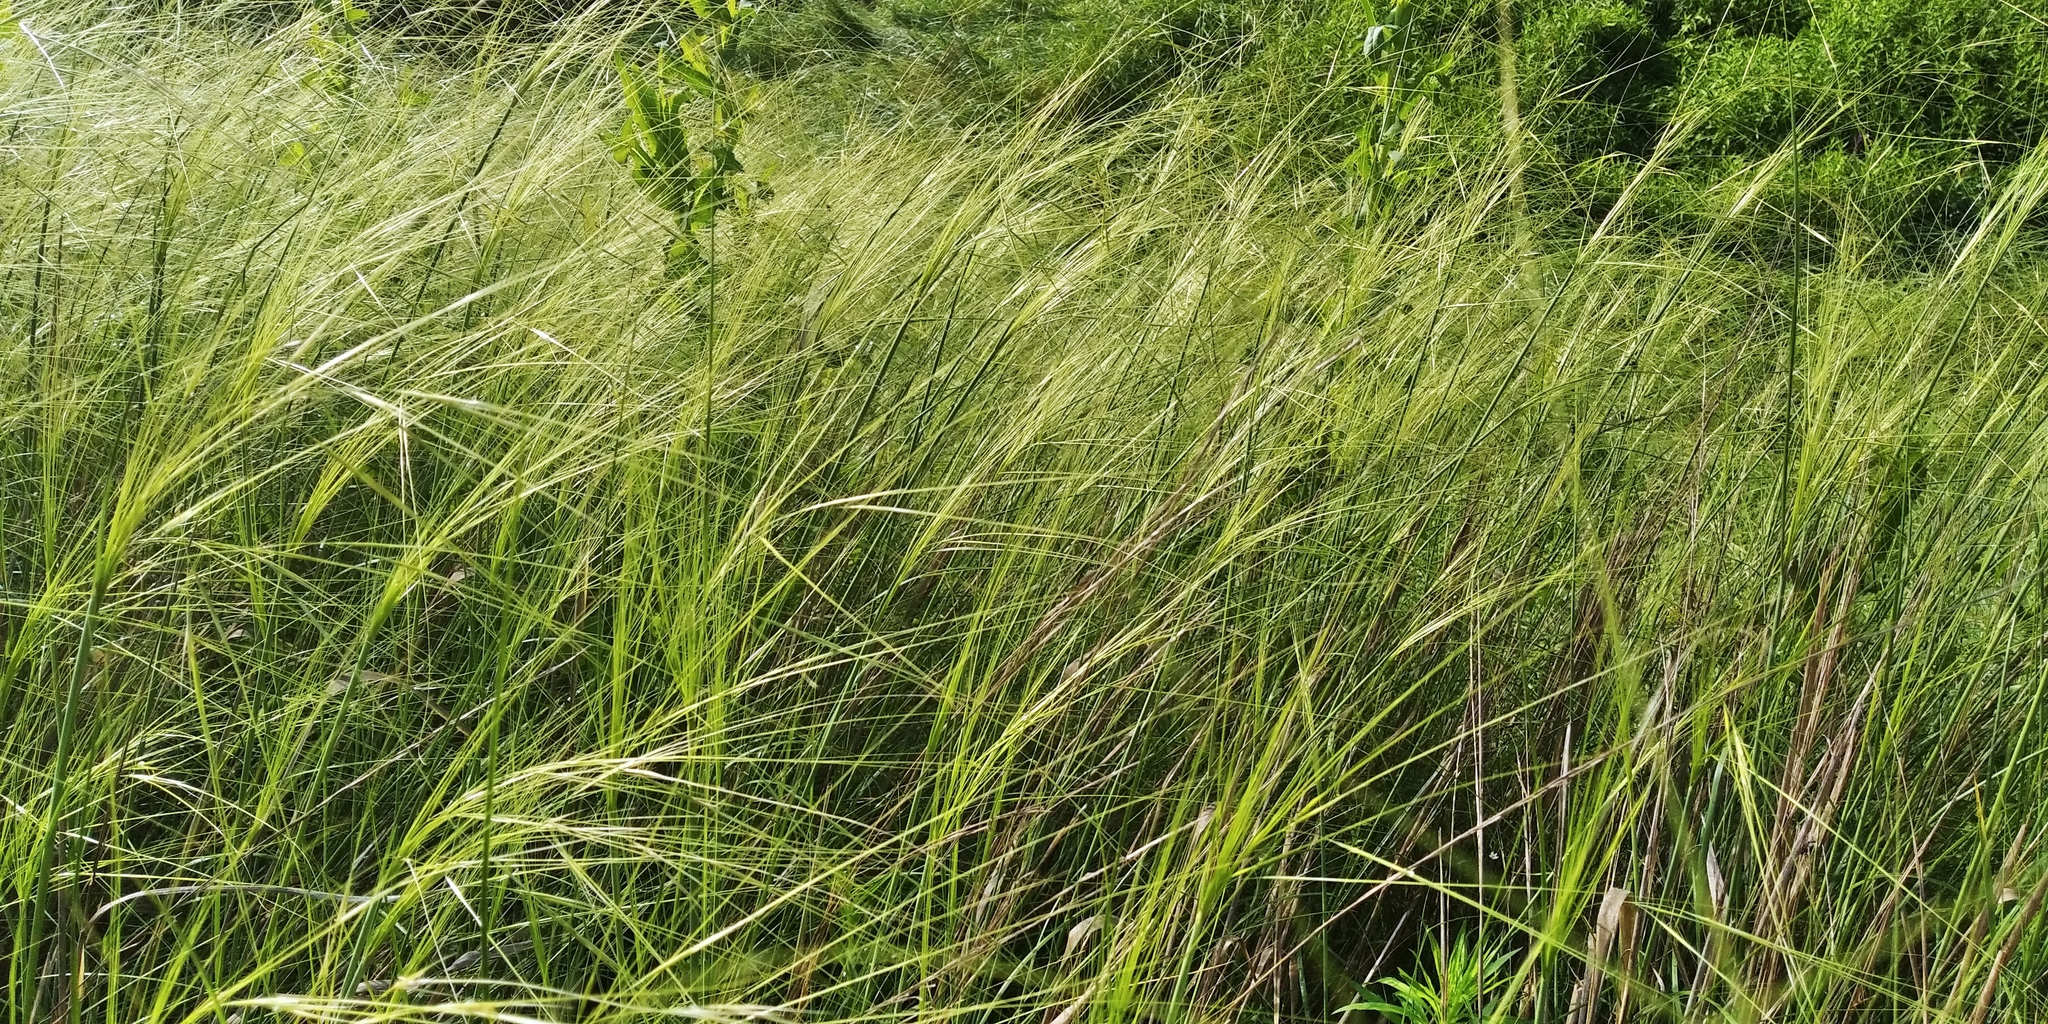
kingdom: Plantae
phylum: Tracheophyta
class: Liliopsida
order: Poales
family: Poaceae
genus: Stipa
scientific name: Stipa capillata
